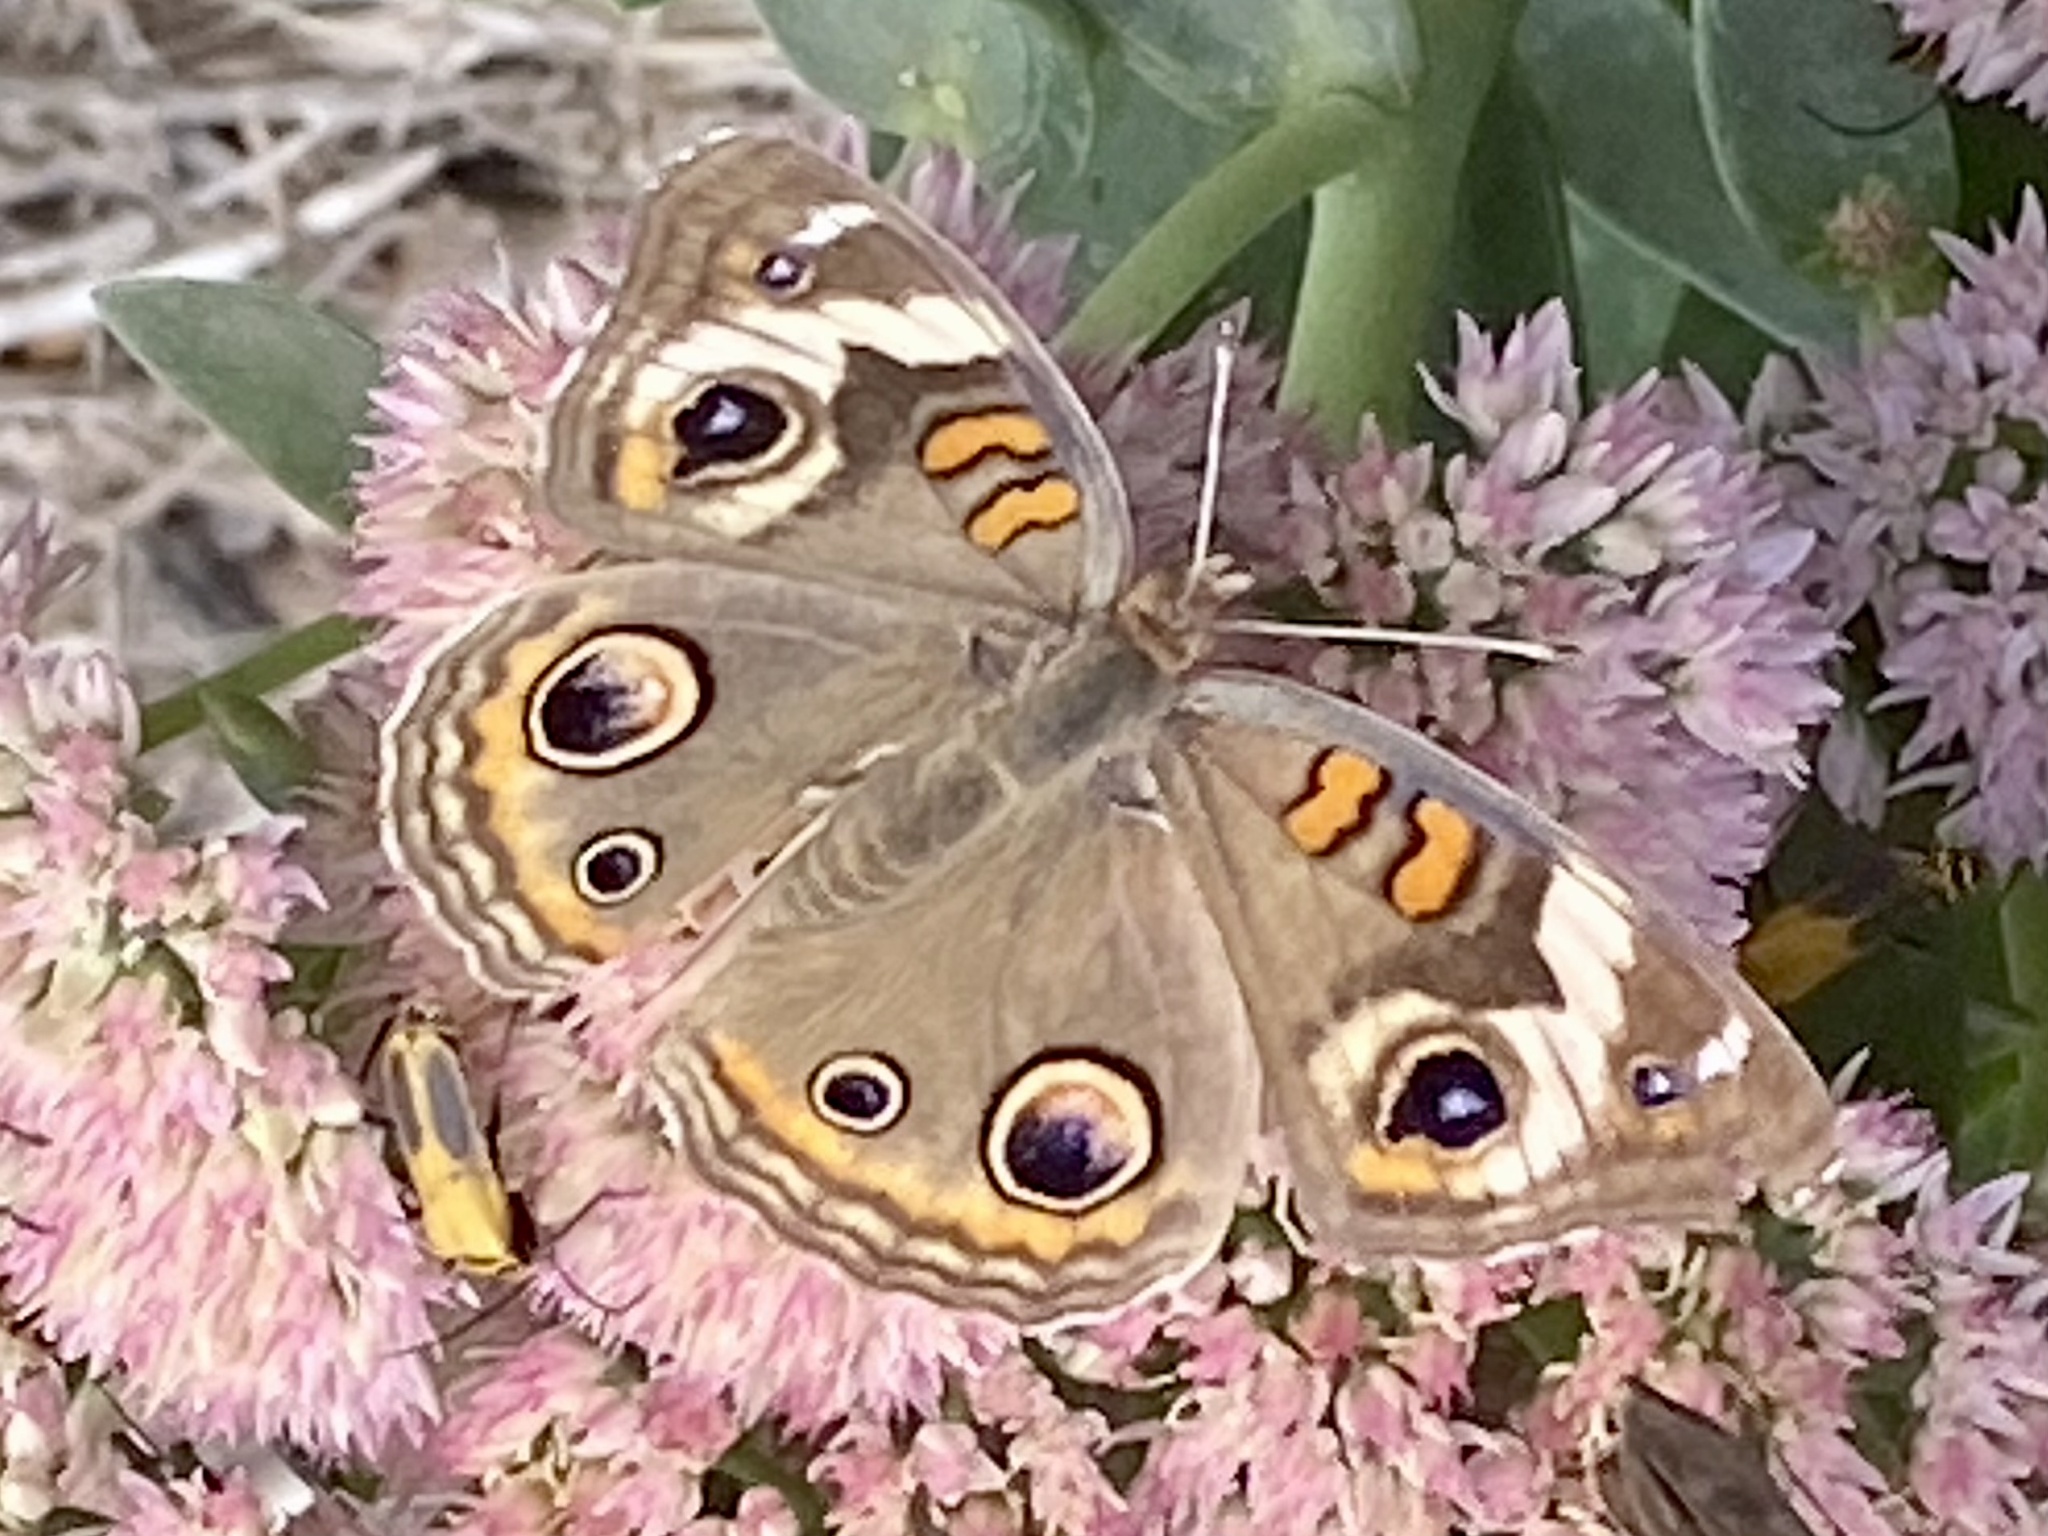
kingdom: Animalia
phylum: Arthropoda
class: Insecta
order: Lepidoptera
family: Nymphalidae
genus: Junonia
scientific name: Junonia coenia
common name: Common buckeye
